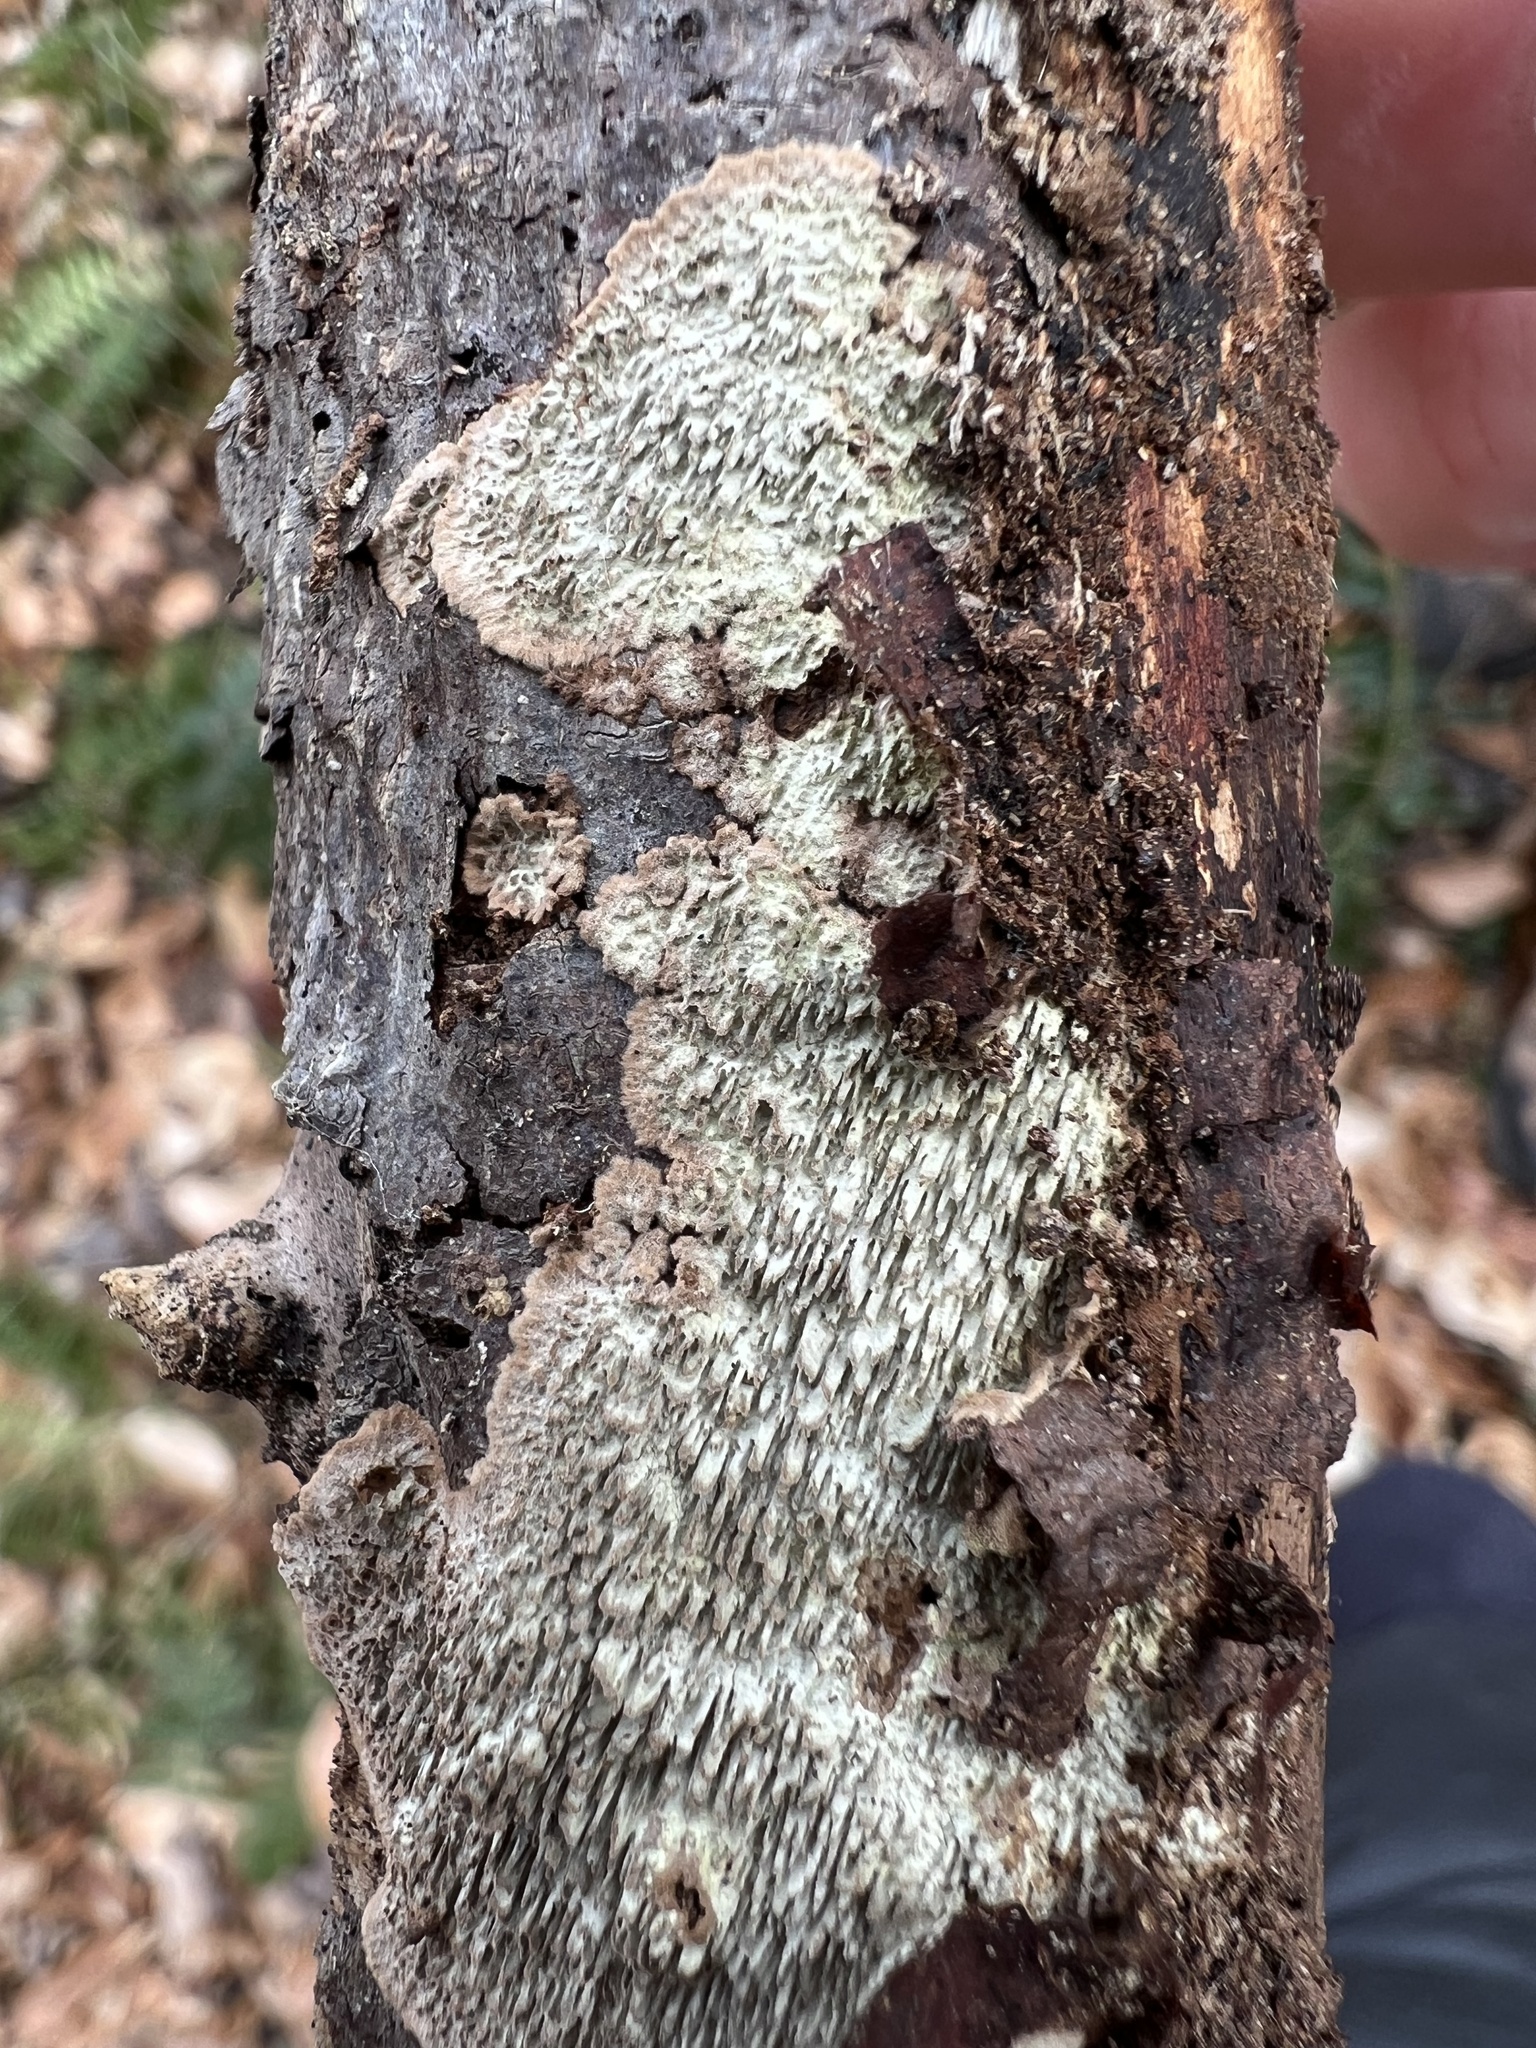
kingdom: Fungi
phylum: Basidiomycota
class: Agaricomycetes
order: Polyporales
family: Polyporaceae
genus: Dentocorticium
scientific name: Dentocorticium portoricense
